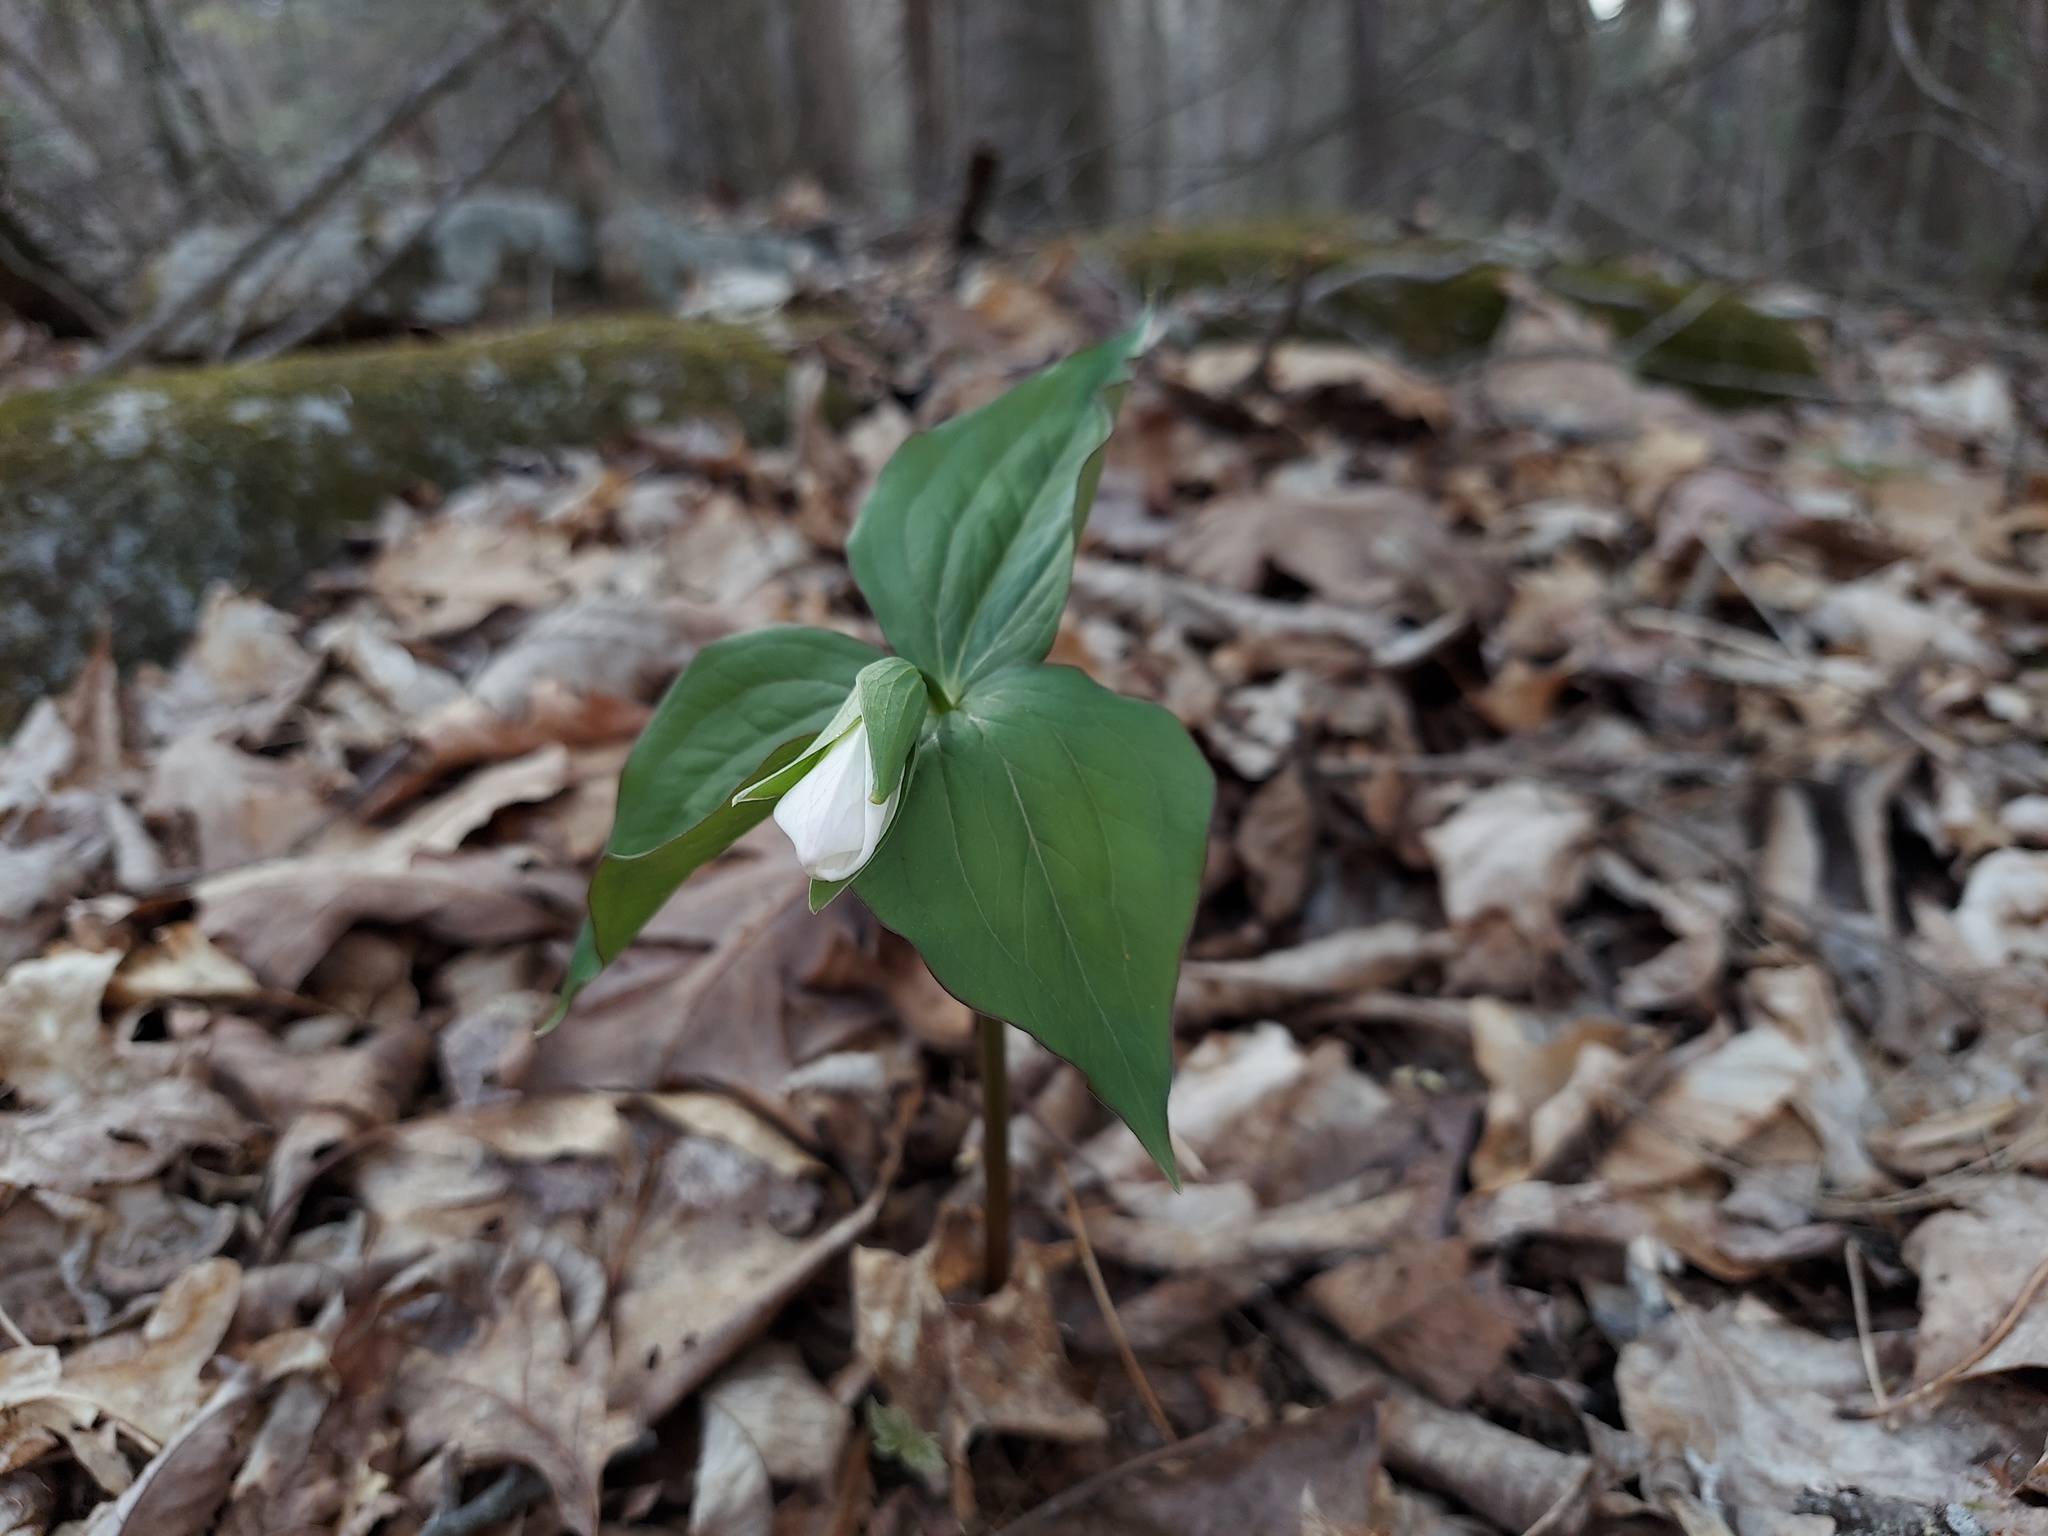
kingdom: Plantae
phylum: Tracheophyta
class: Liliopsida
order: Liliales
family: Melanthiaceae
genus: Trillium
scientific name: Trillium grandiflorum
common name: Great white trillium
